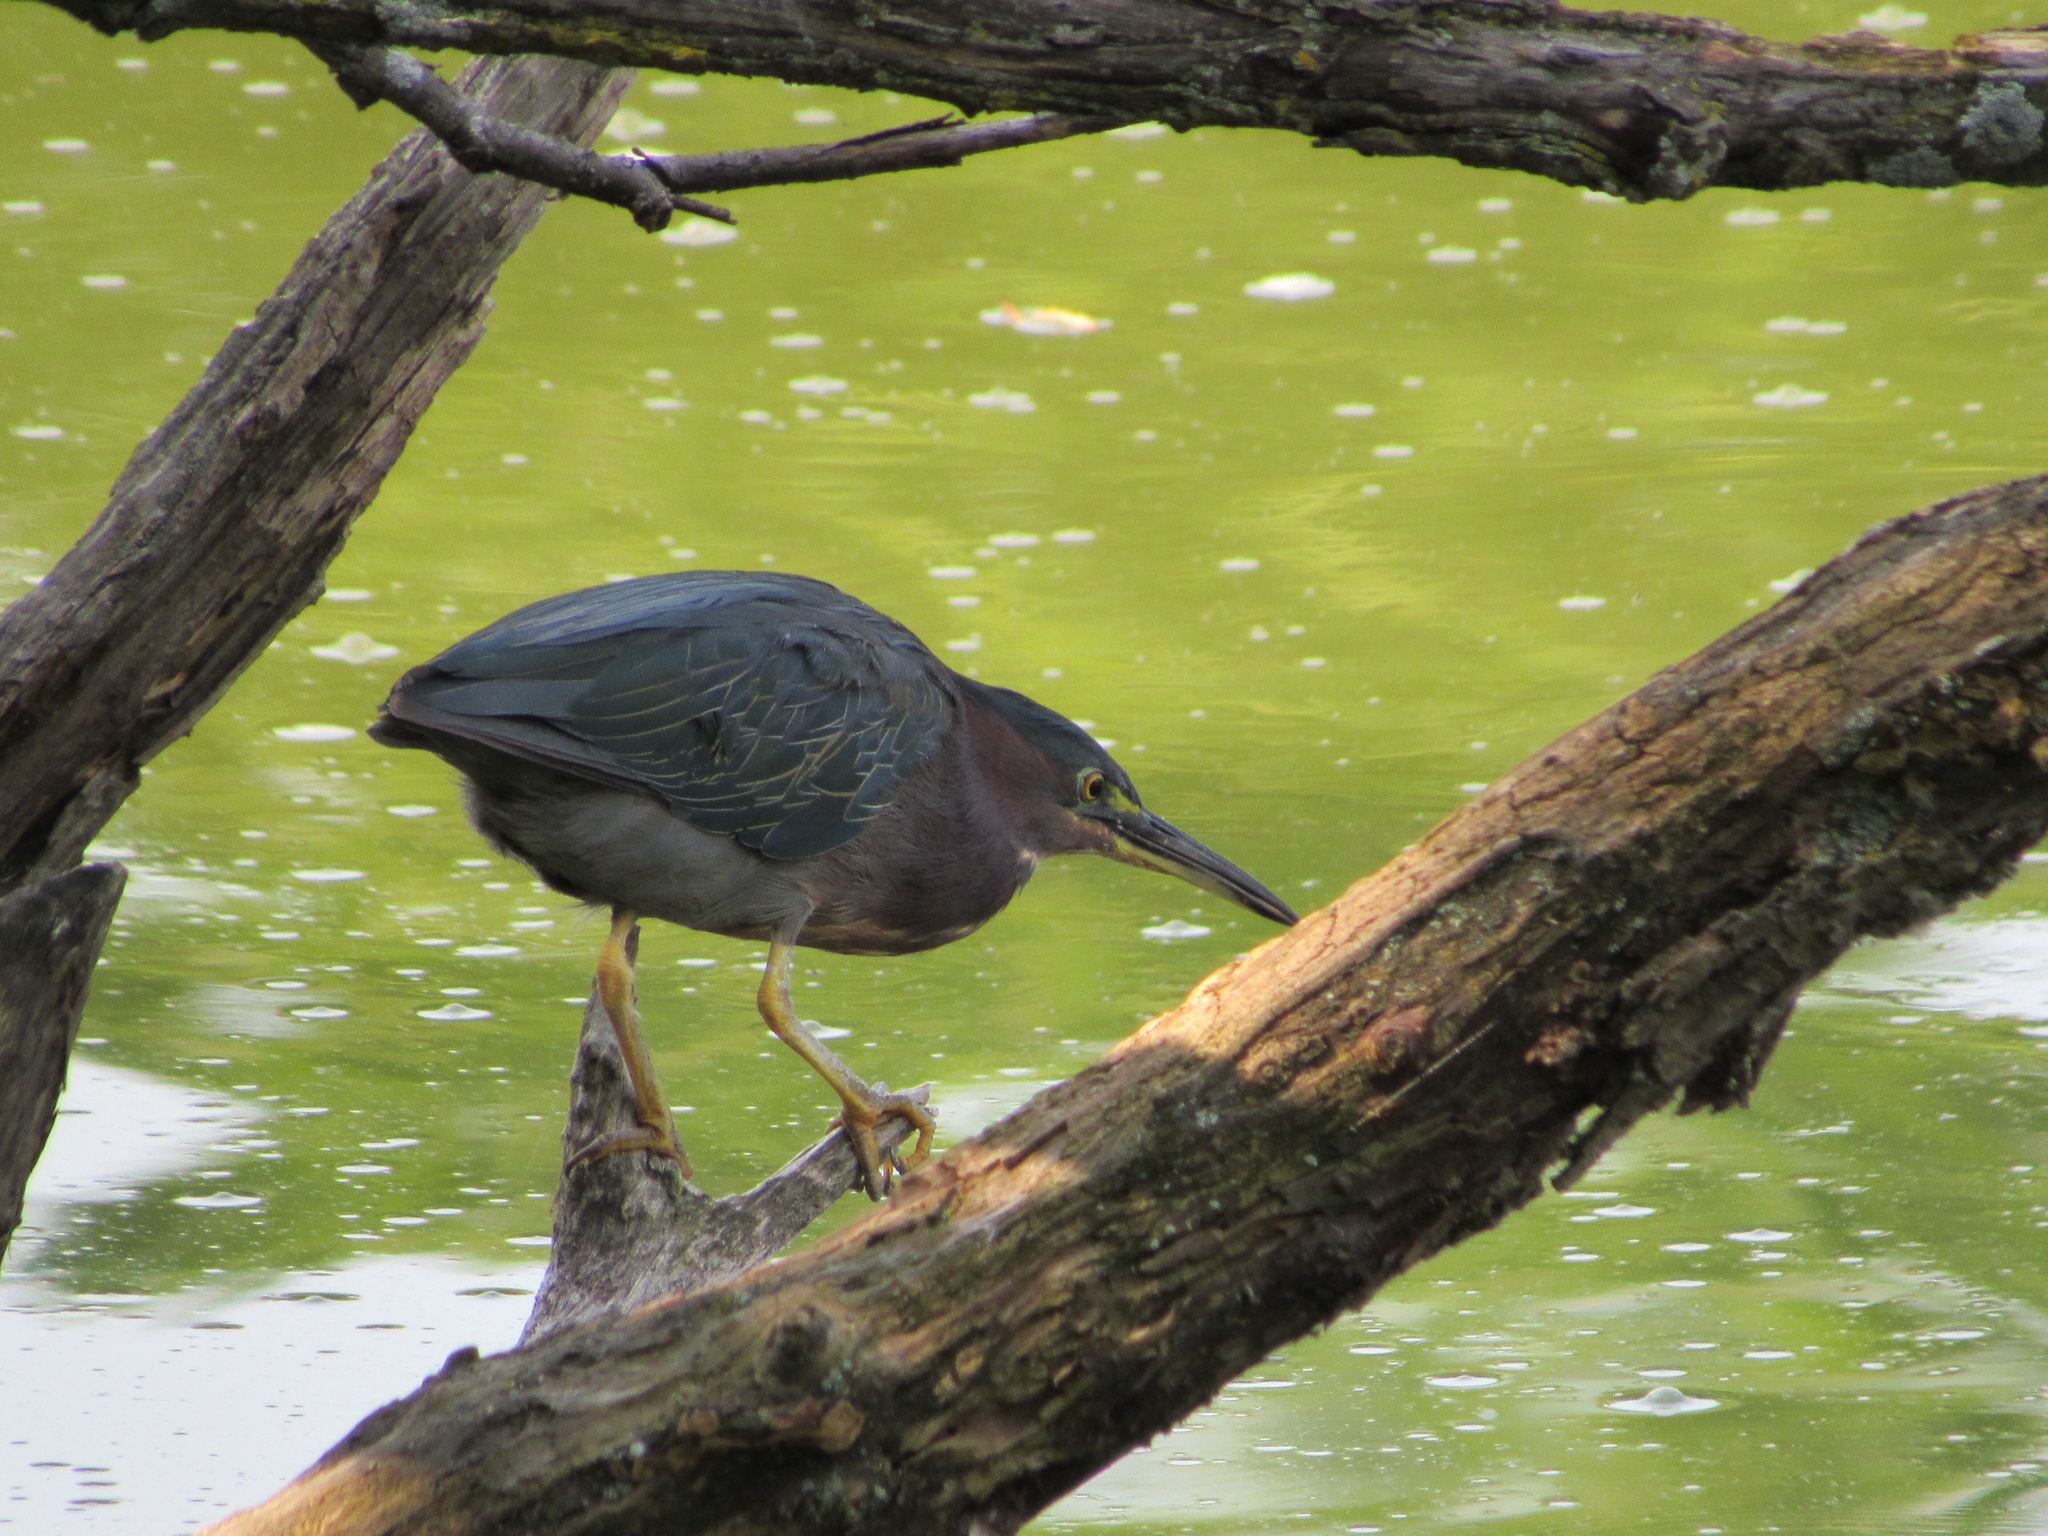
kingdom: Animalia
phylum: Chordata
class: Aves
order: Pelecaniformes
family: Ardeidae
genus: Butorides
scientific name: Butorides virescens
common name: Green heron
